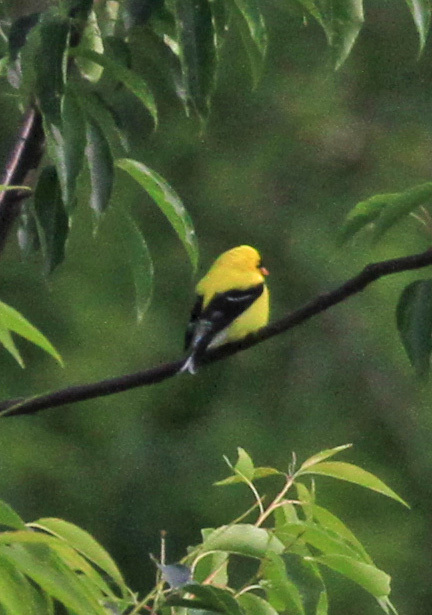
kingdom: Animalia
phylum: Chordata
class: Aves
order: Passeriformes
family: Fringillidae
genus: Spinus
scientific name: Spinus tristis
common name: American goldfinch
